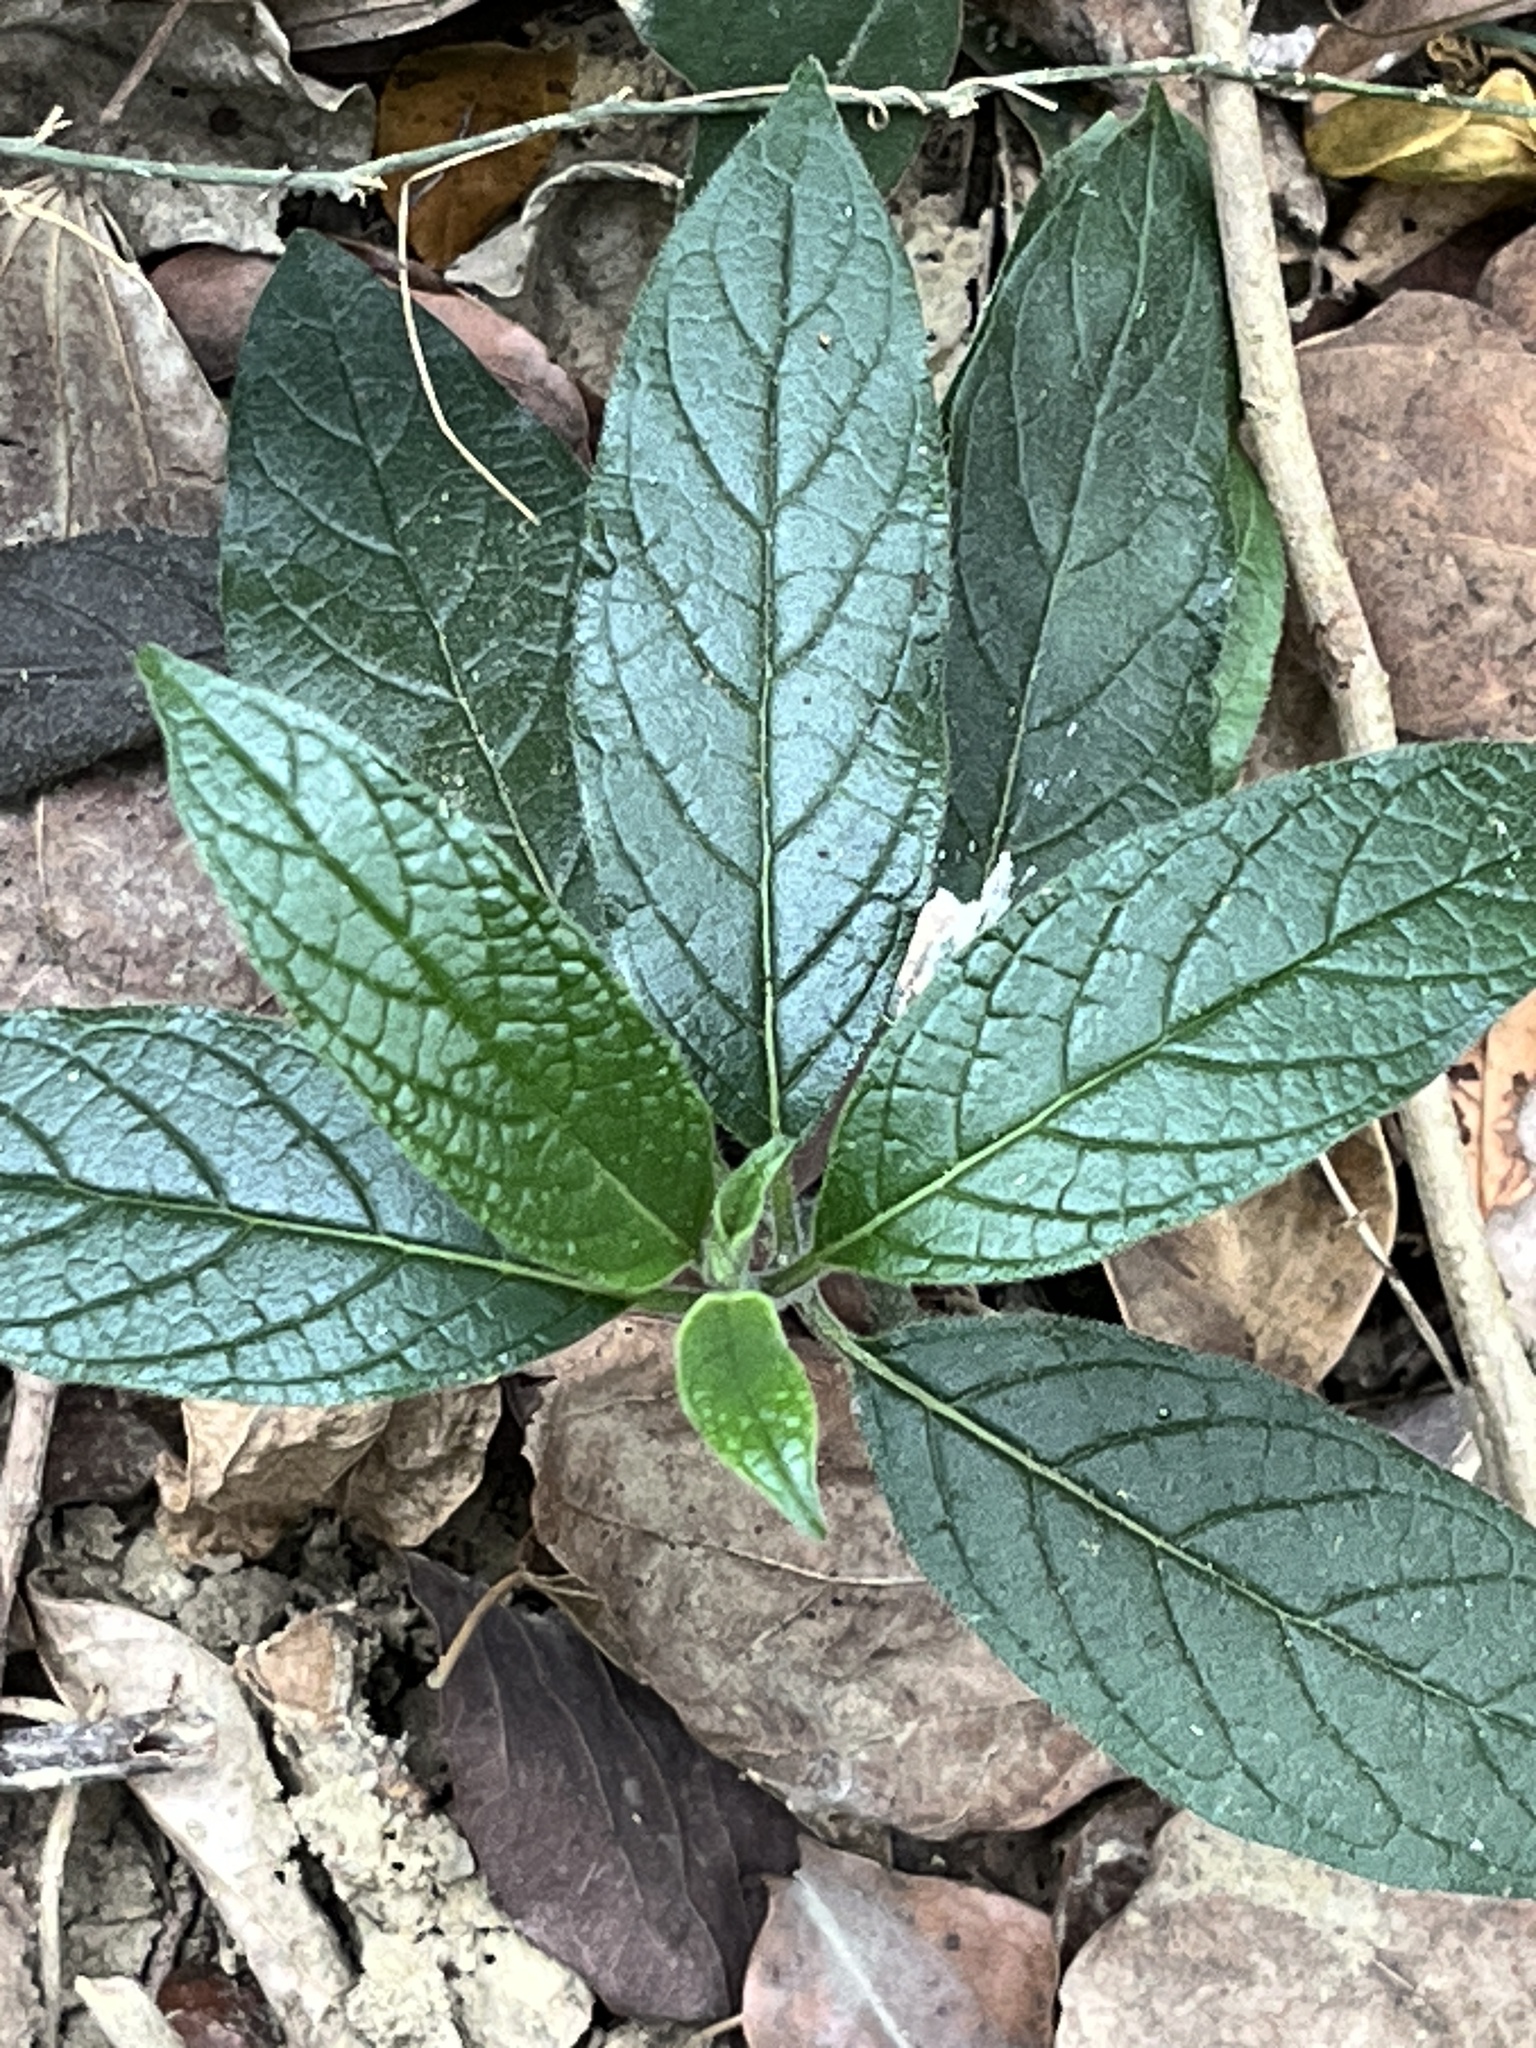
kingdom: Plantae
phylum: Tracheophyta
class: Magnoliopsida
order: Boraginales
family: Heliotropiaceae
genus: Heliotropium
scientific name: Heliotropium sarmentosum
